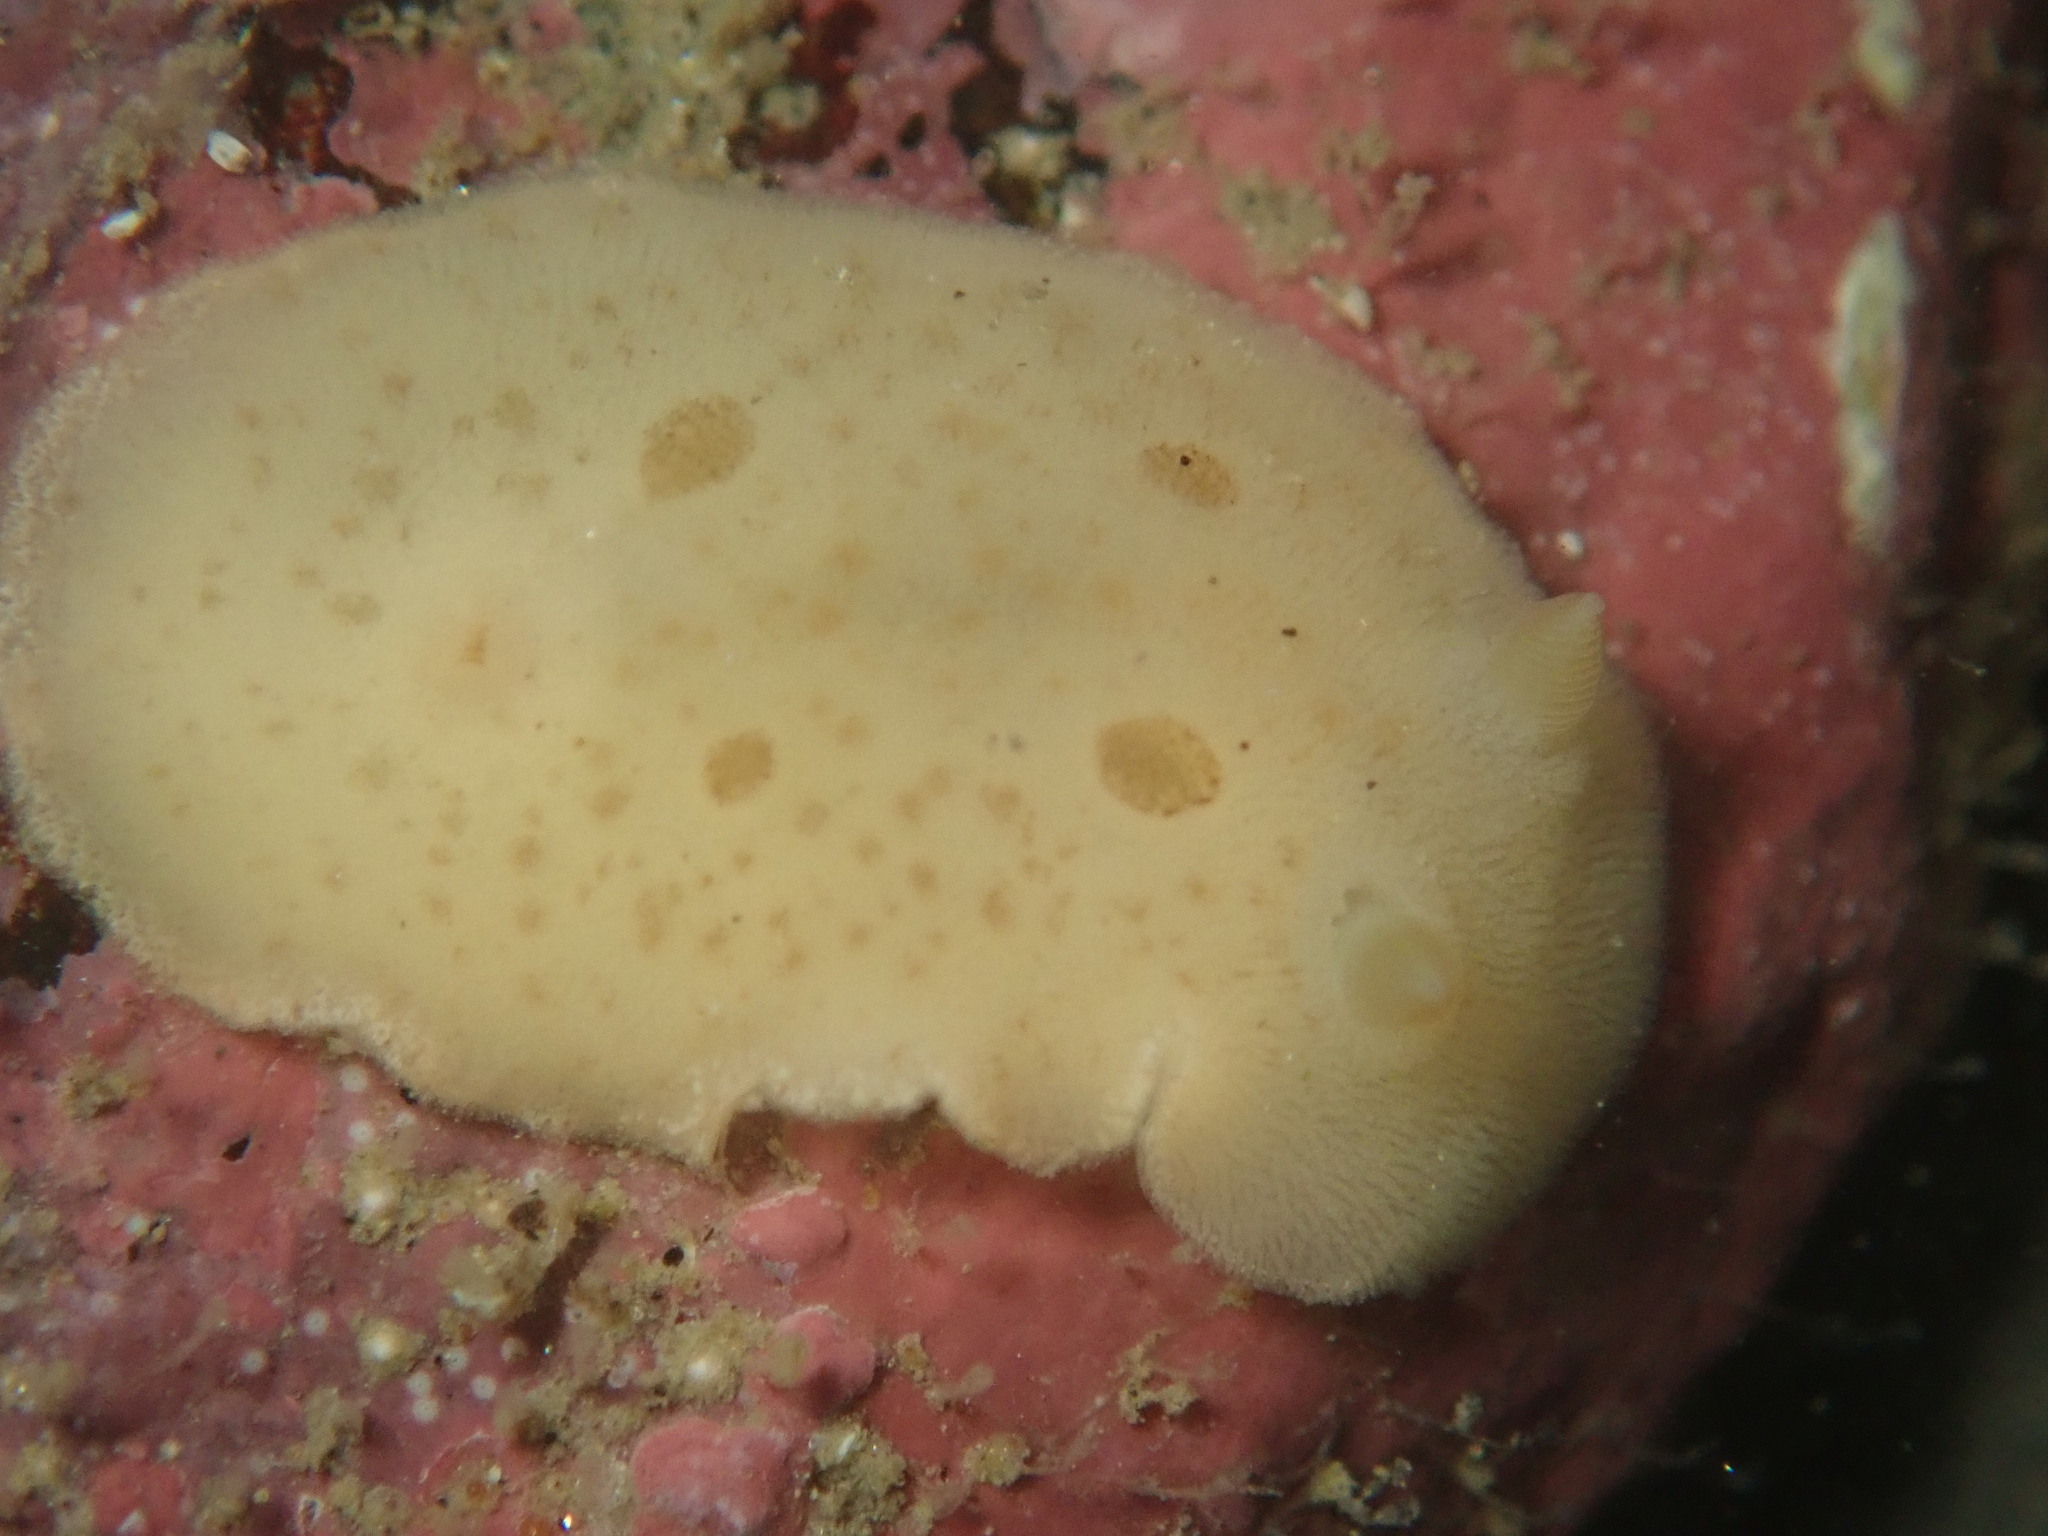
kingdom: Animalia
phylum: Mollusca
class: Gastropoda
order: Nudibranchia
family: Discodorididae
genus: Diaulula
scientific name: Diaulula sandiegensis
